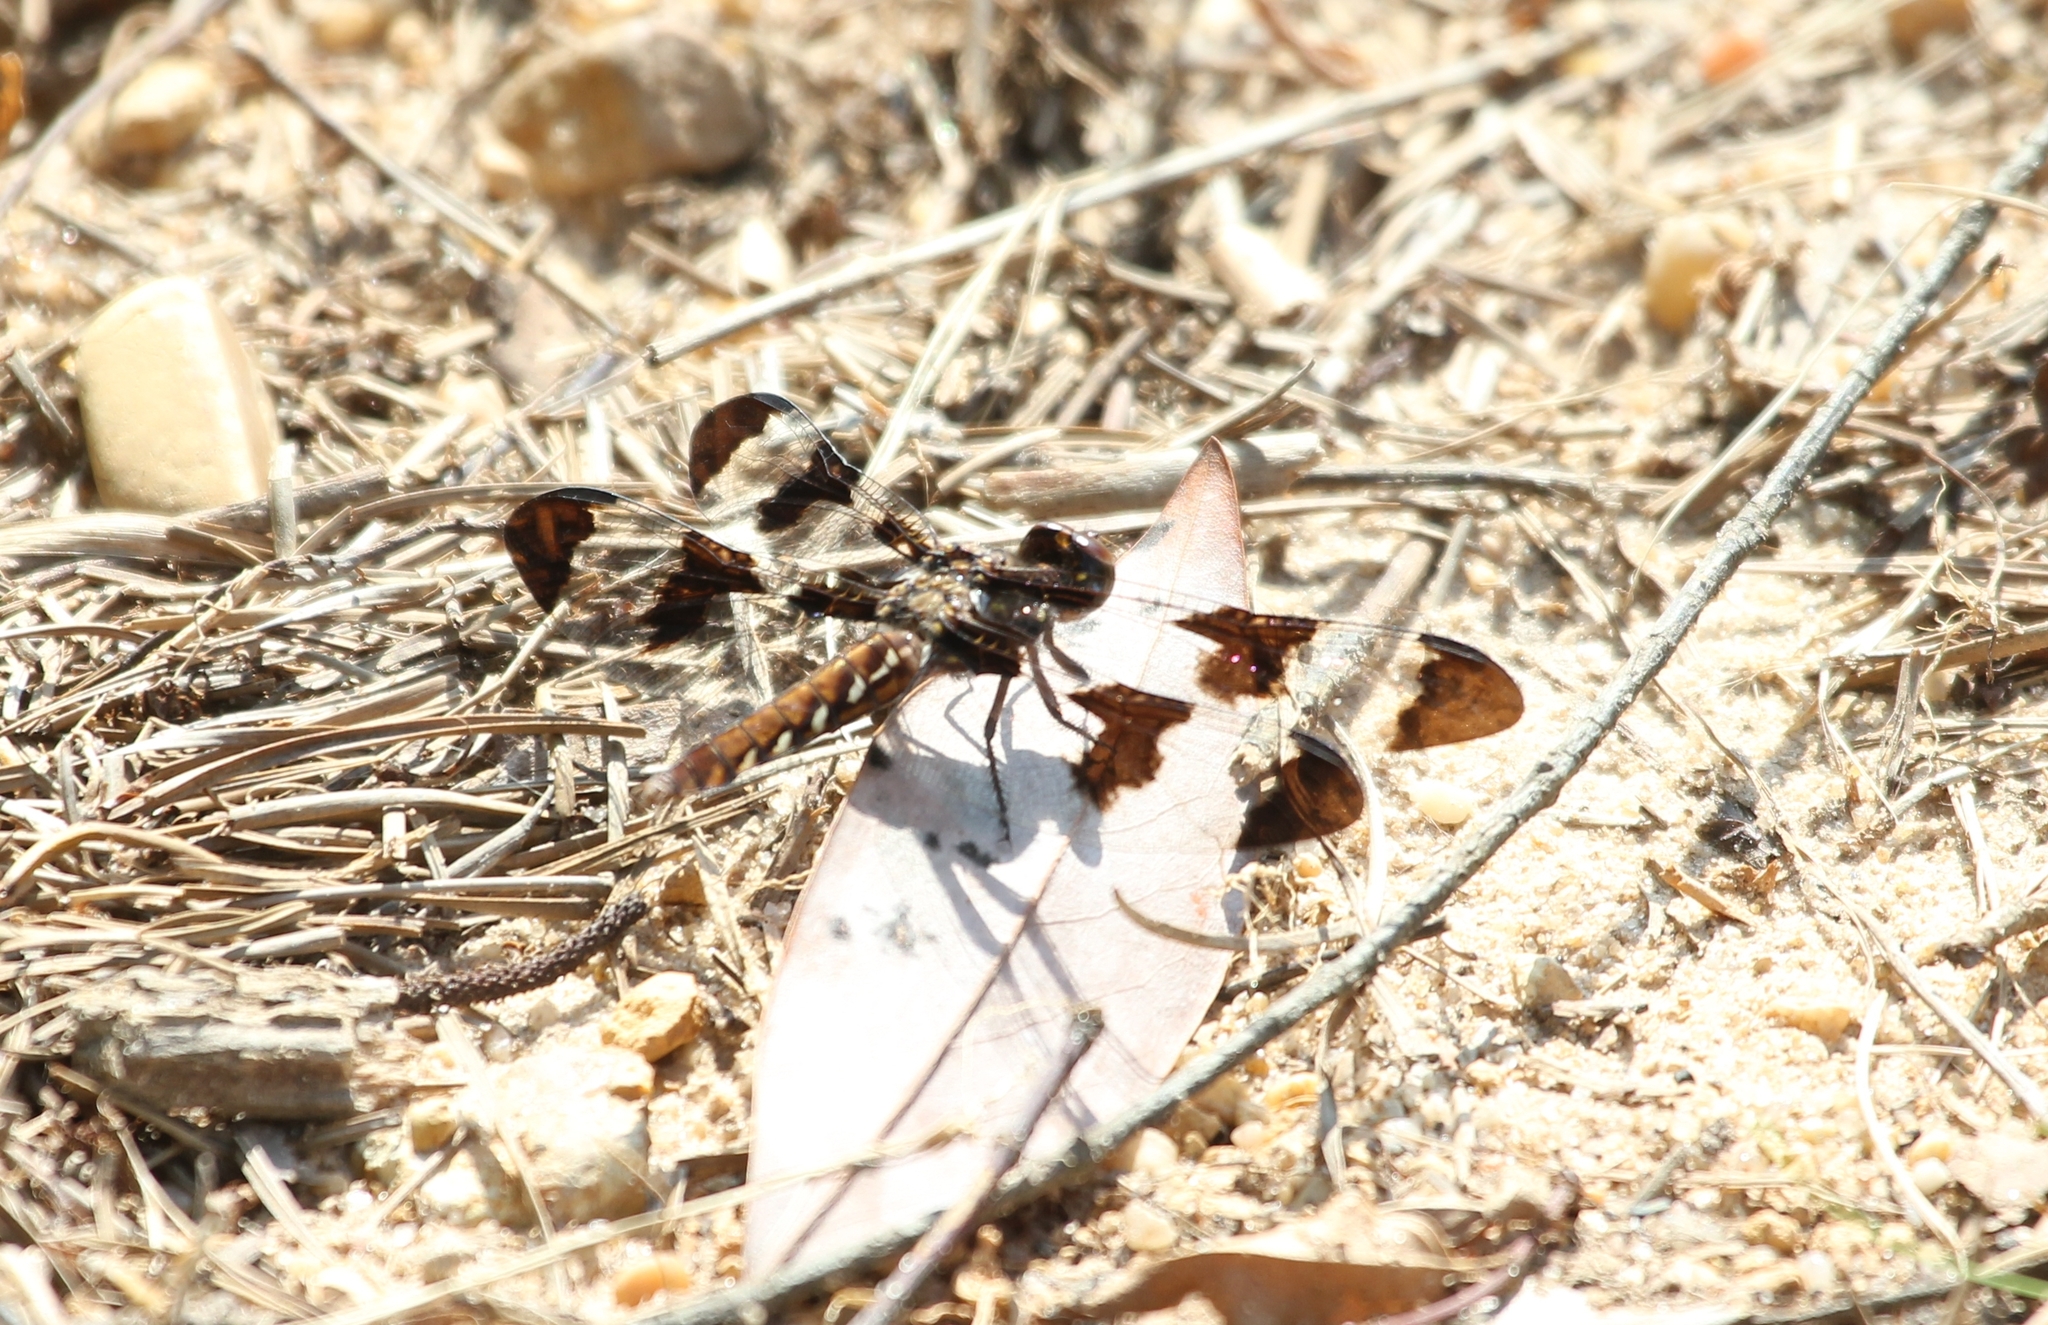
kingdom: Animalia
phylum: Arthropoda
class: Insecta
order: Odonata
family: Libellulidae
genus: Plathemis
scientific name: Plathemis lydia
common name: Common whitetail
